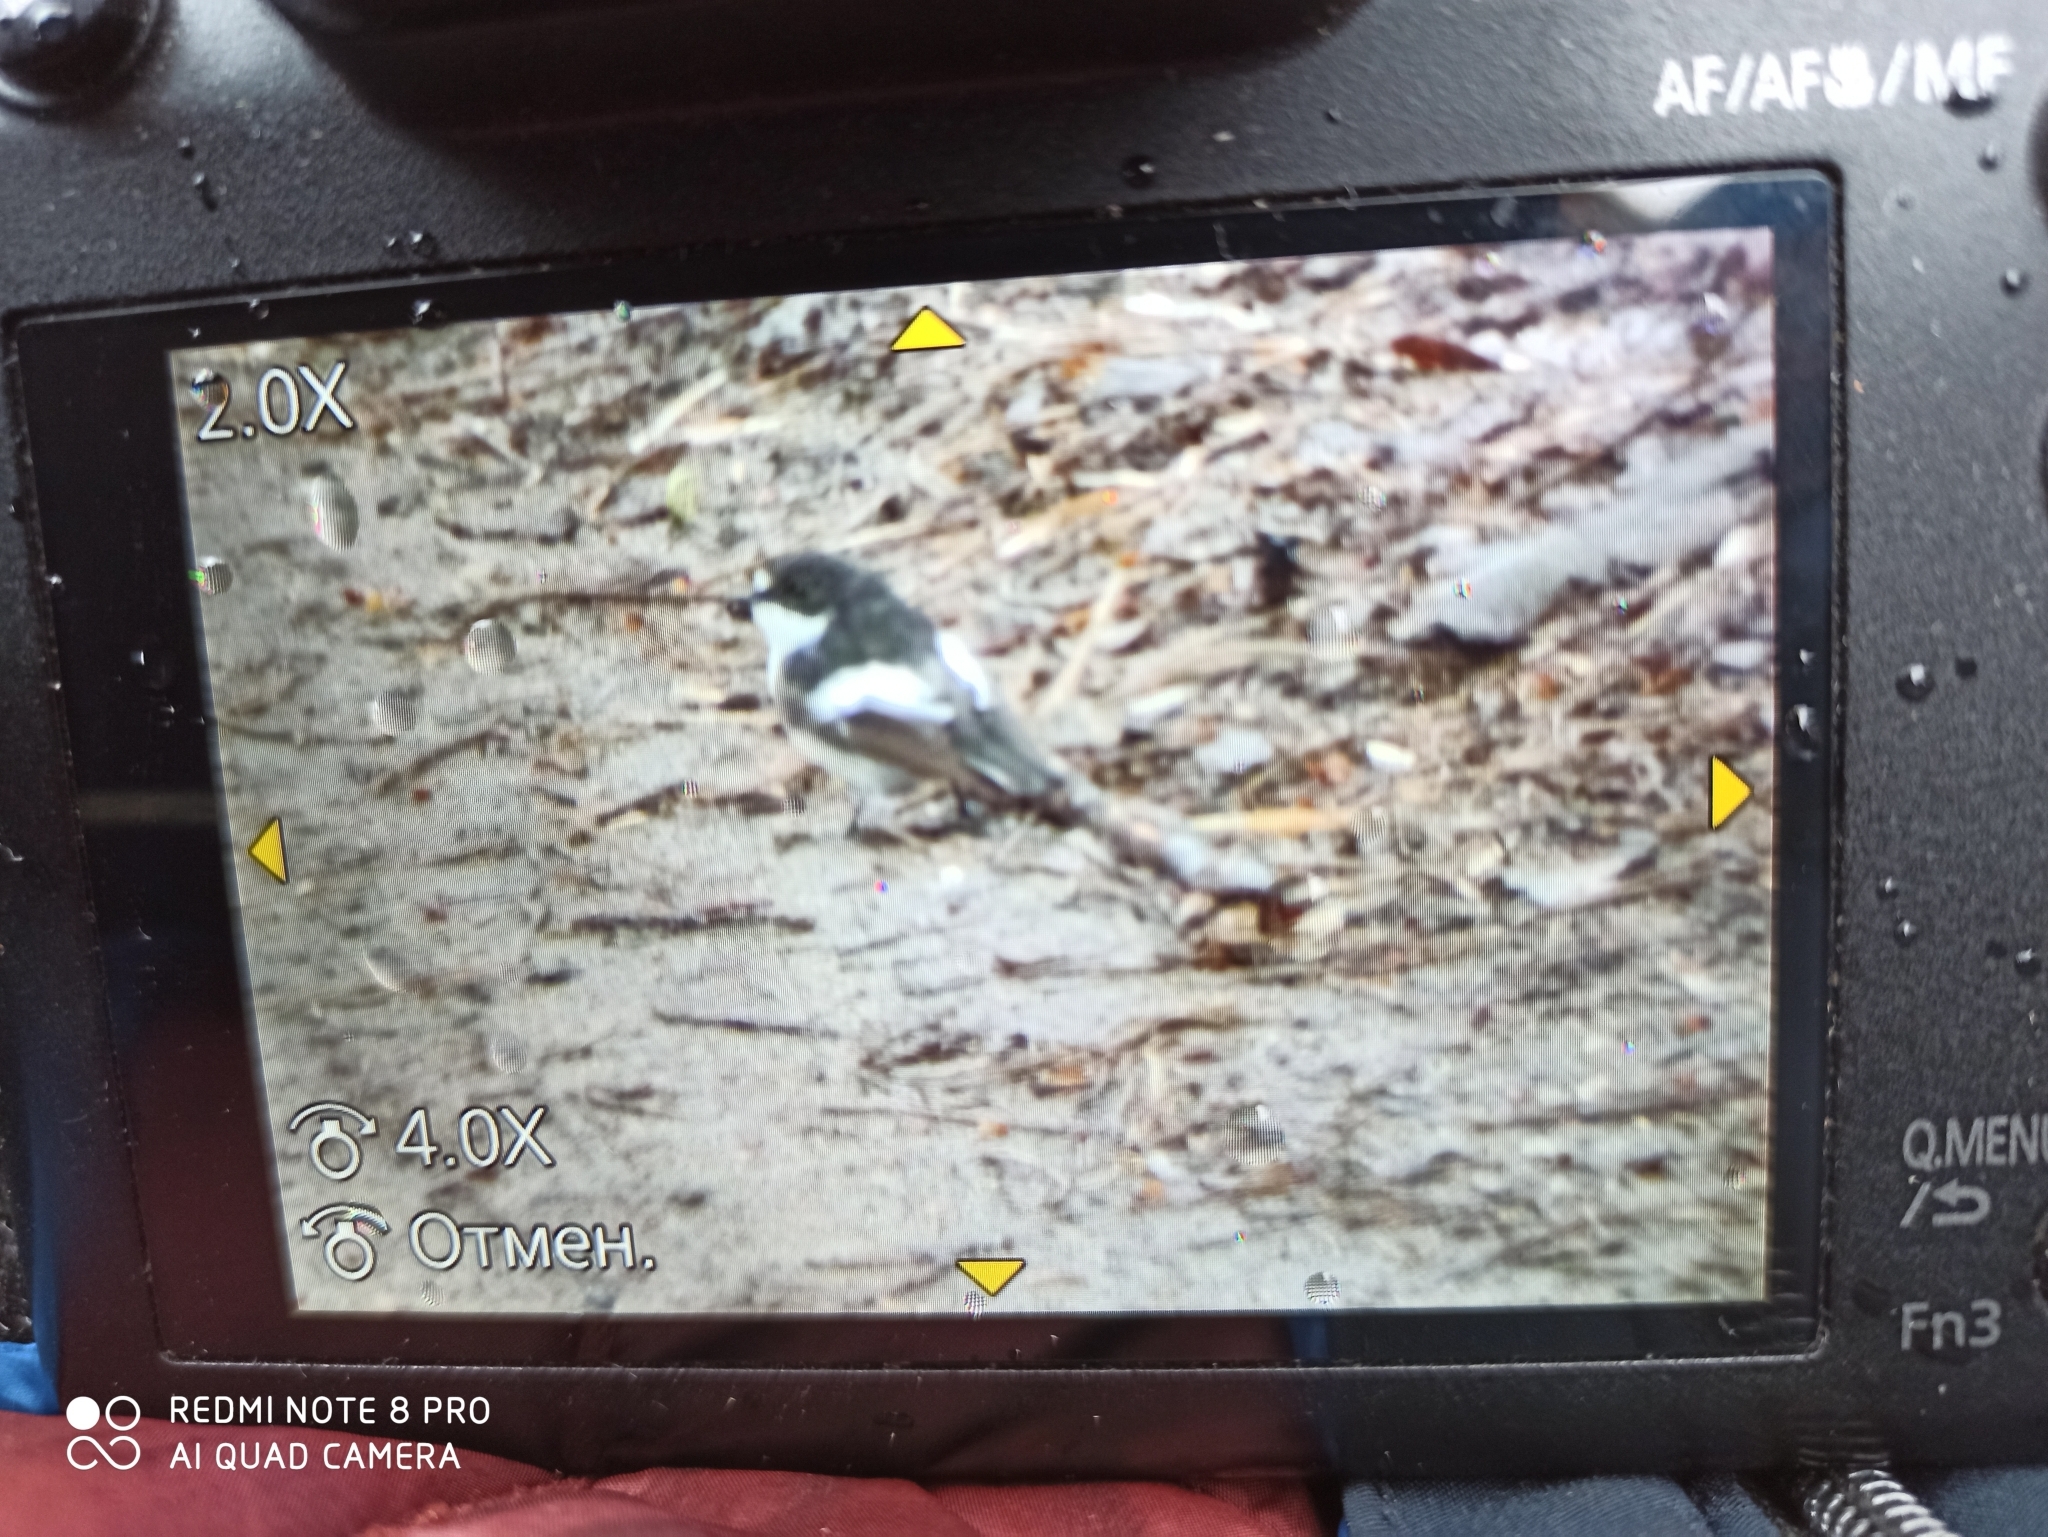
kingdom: Animalia
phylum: Chordata
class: Aves
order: Passeriformes
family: Muscicapidae
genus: Ficedula
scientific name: Ficedula hypoleuca
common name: European pied flycatcher
